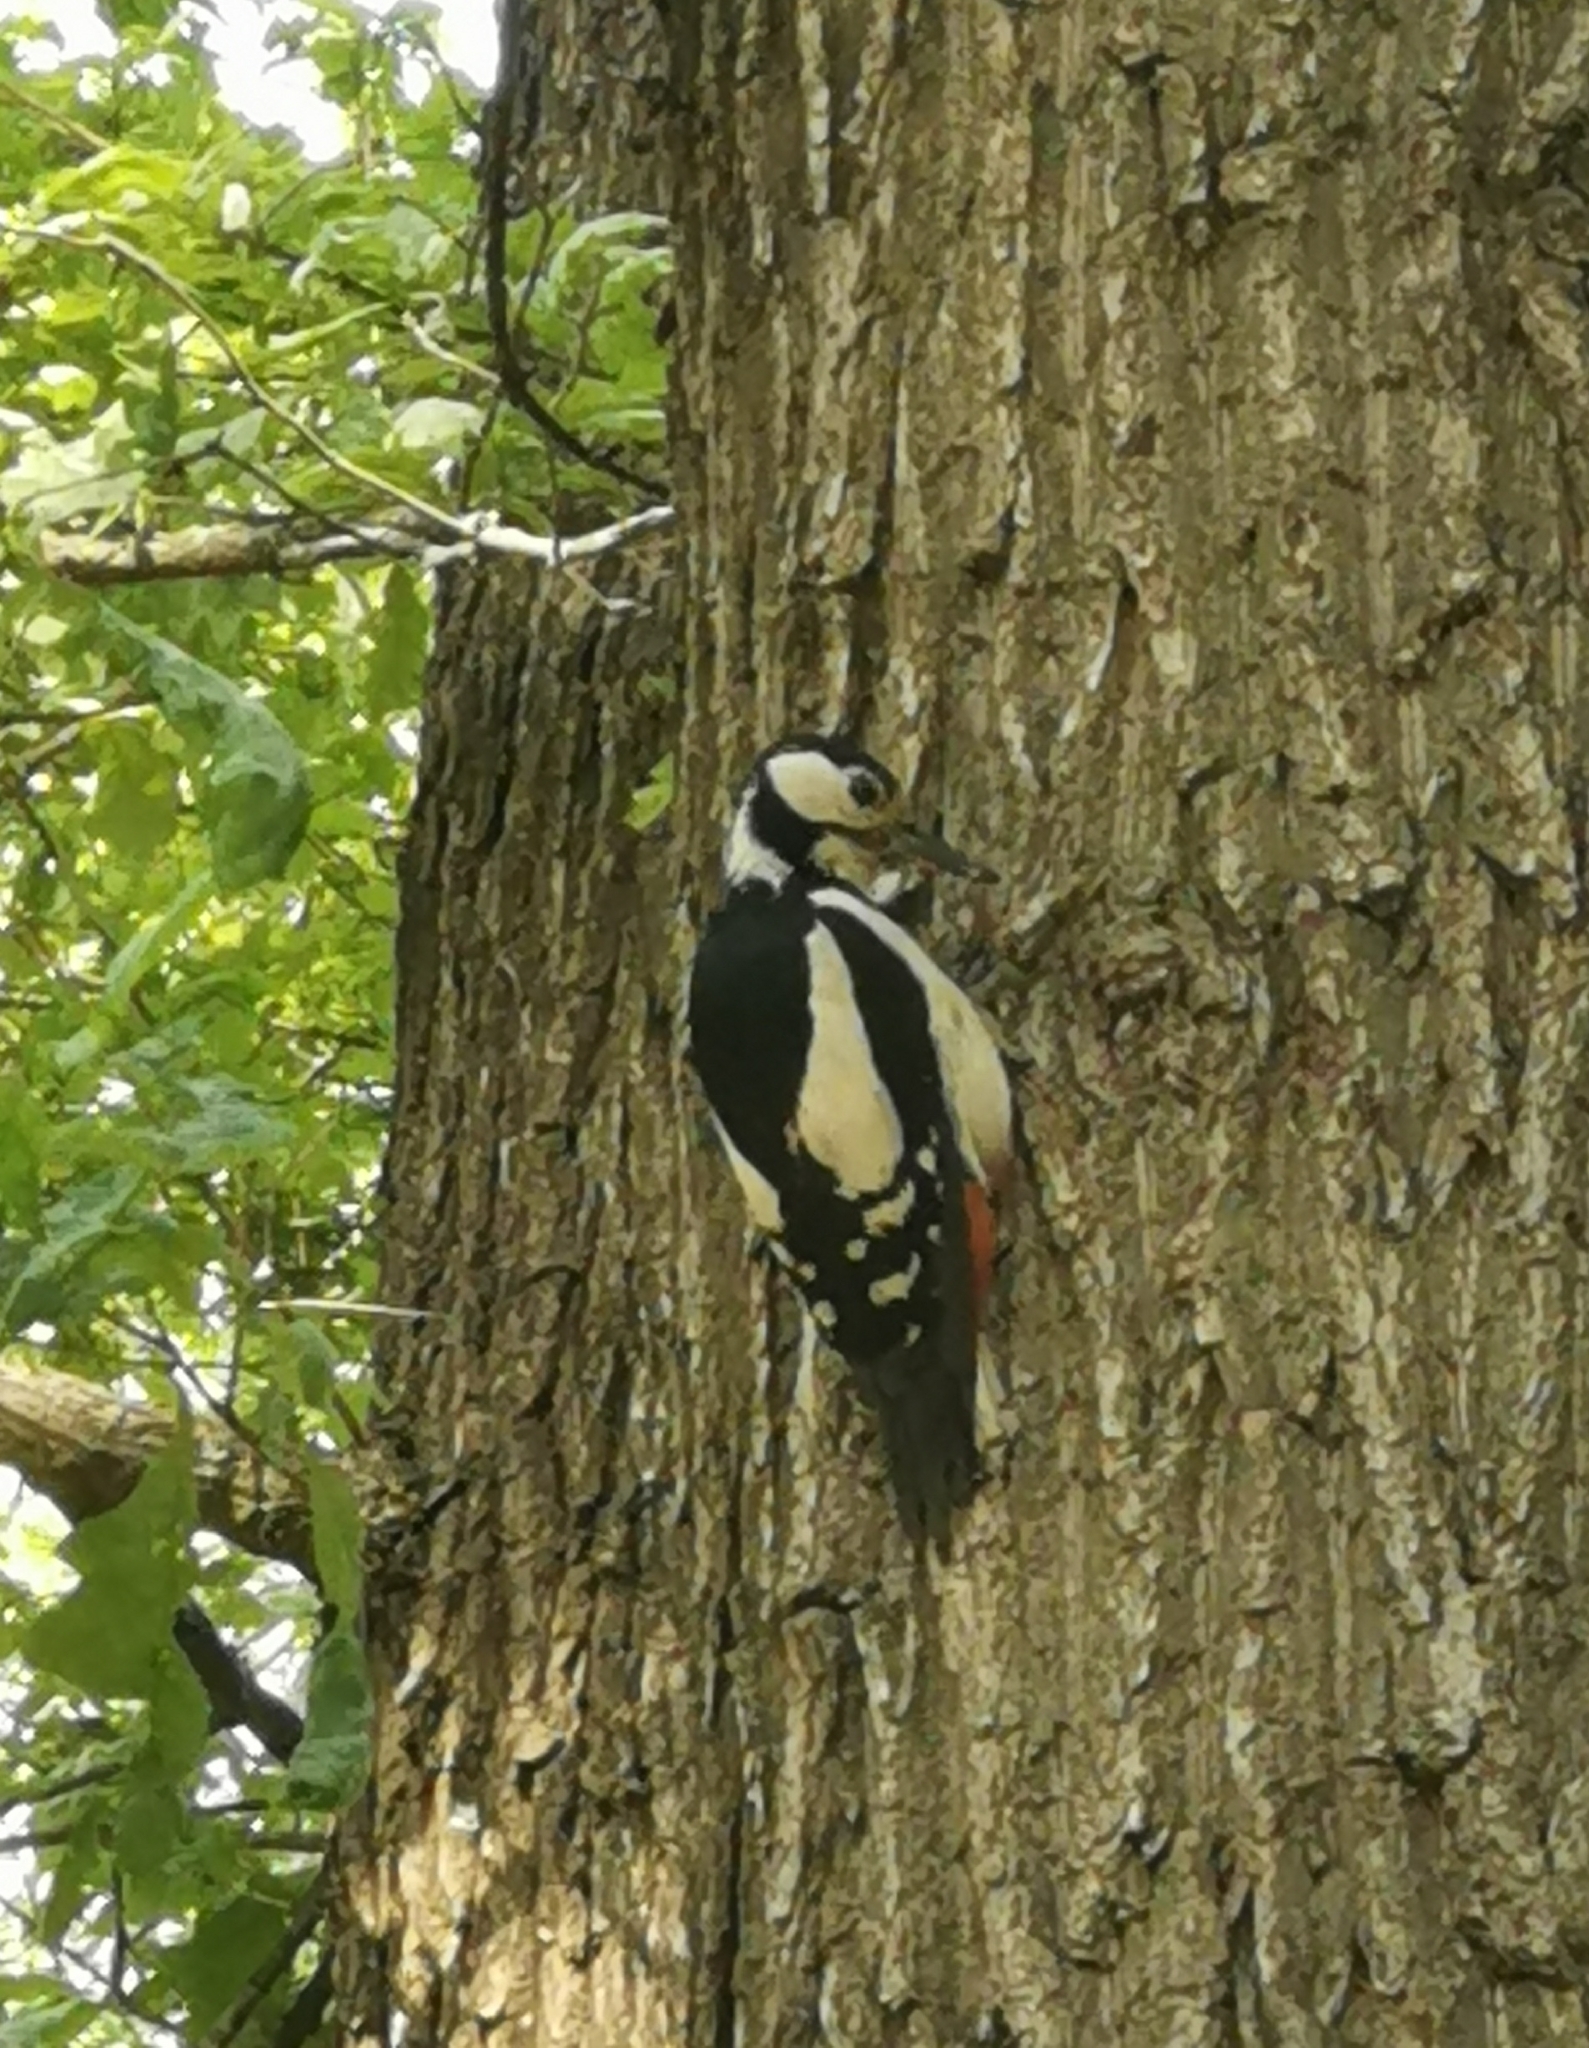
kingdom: Animalia
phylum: Chordata
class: Aves
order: Piciformes
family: Picidae
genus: Dendrocopos
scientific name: Dendrocopos major
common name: Great spotted woodpecker
